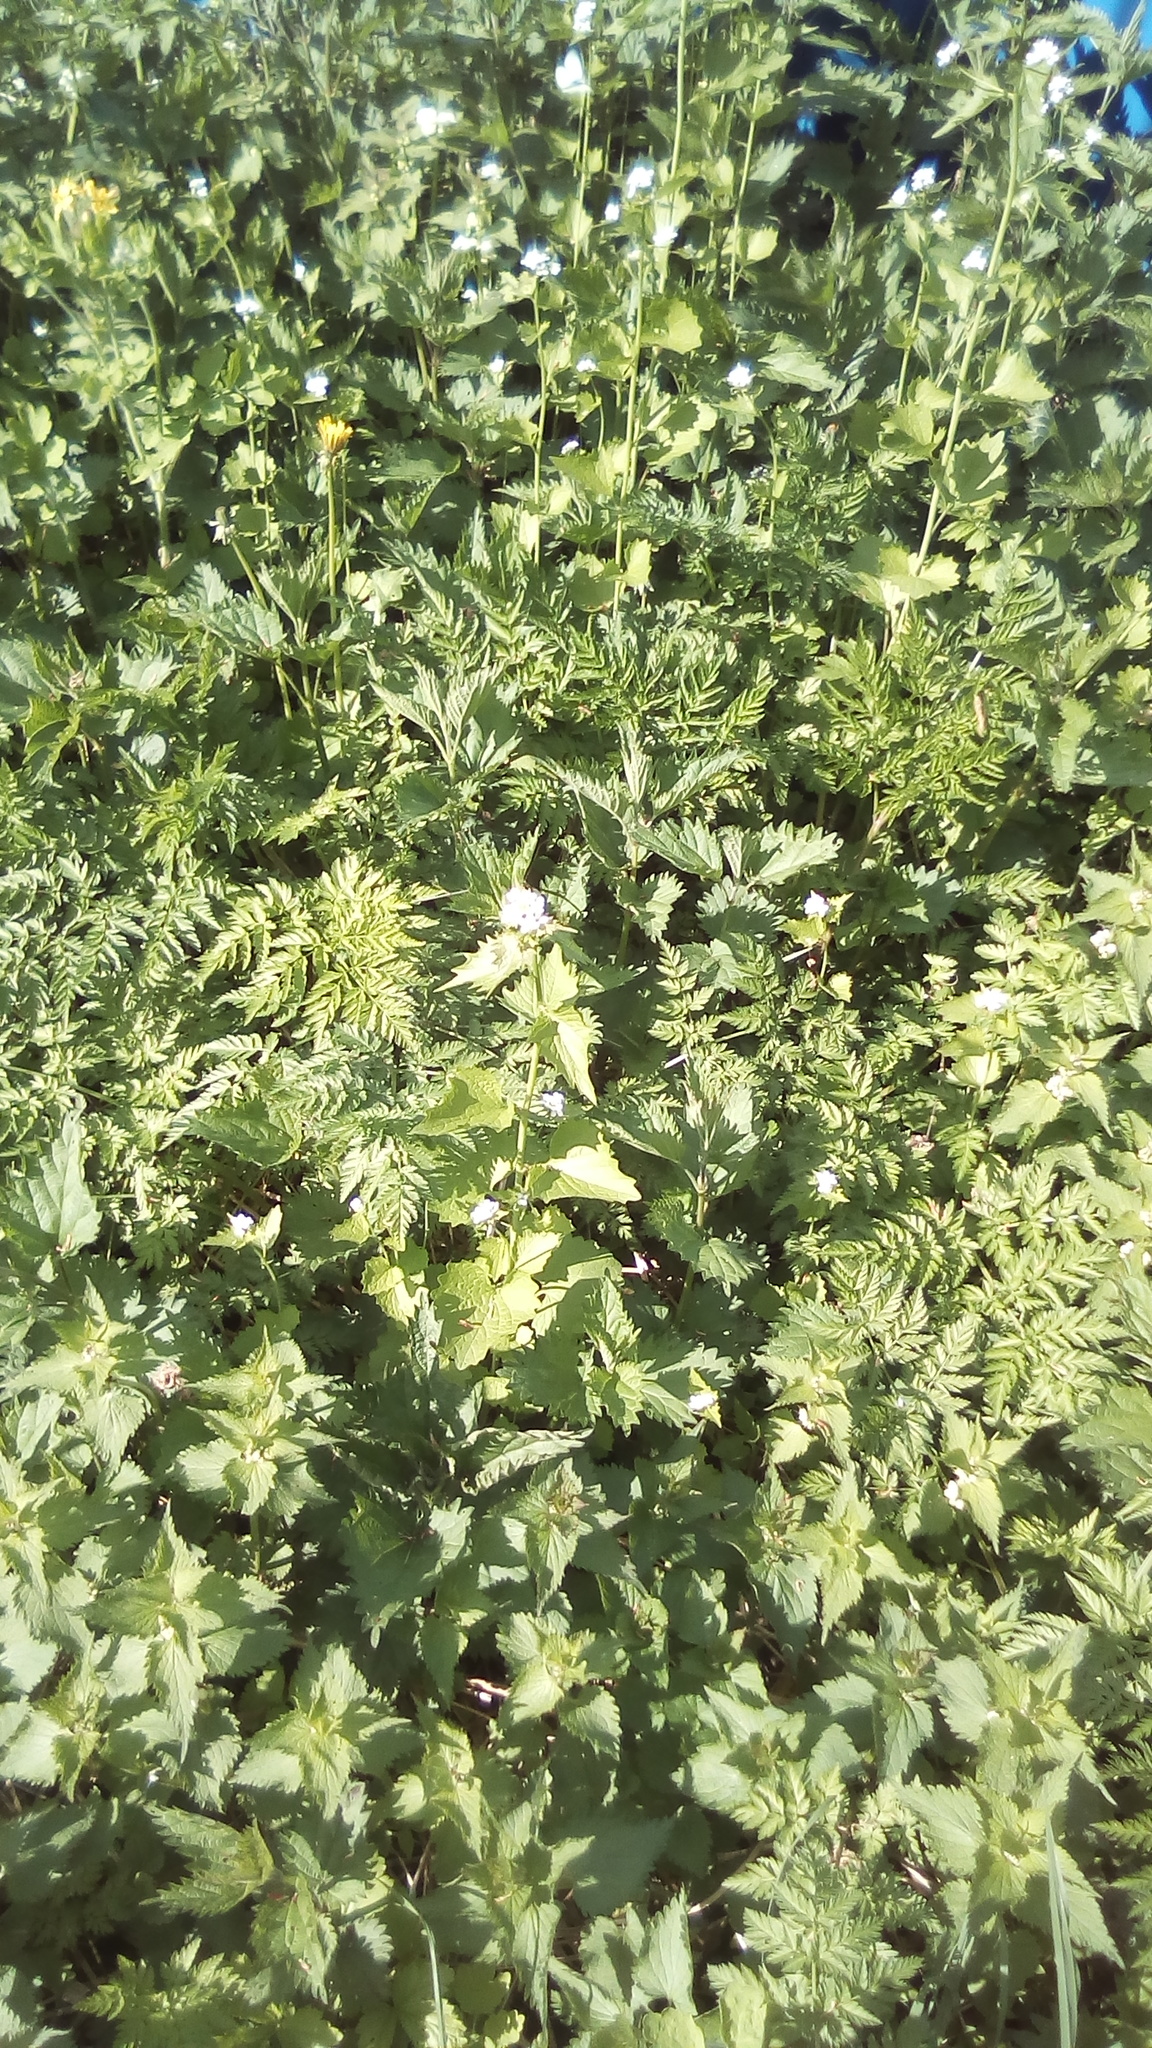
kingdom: Plantae
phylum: Tracheophyta
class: Magnoliopsida
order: Brassicales
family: Brassicaceae
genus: Alliaria
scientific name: Alliaria petiolata
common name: Garlic mustard
